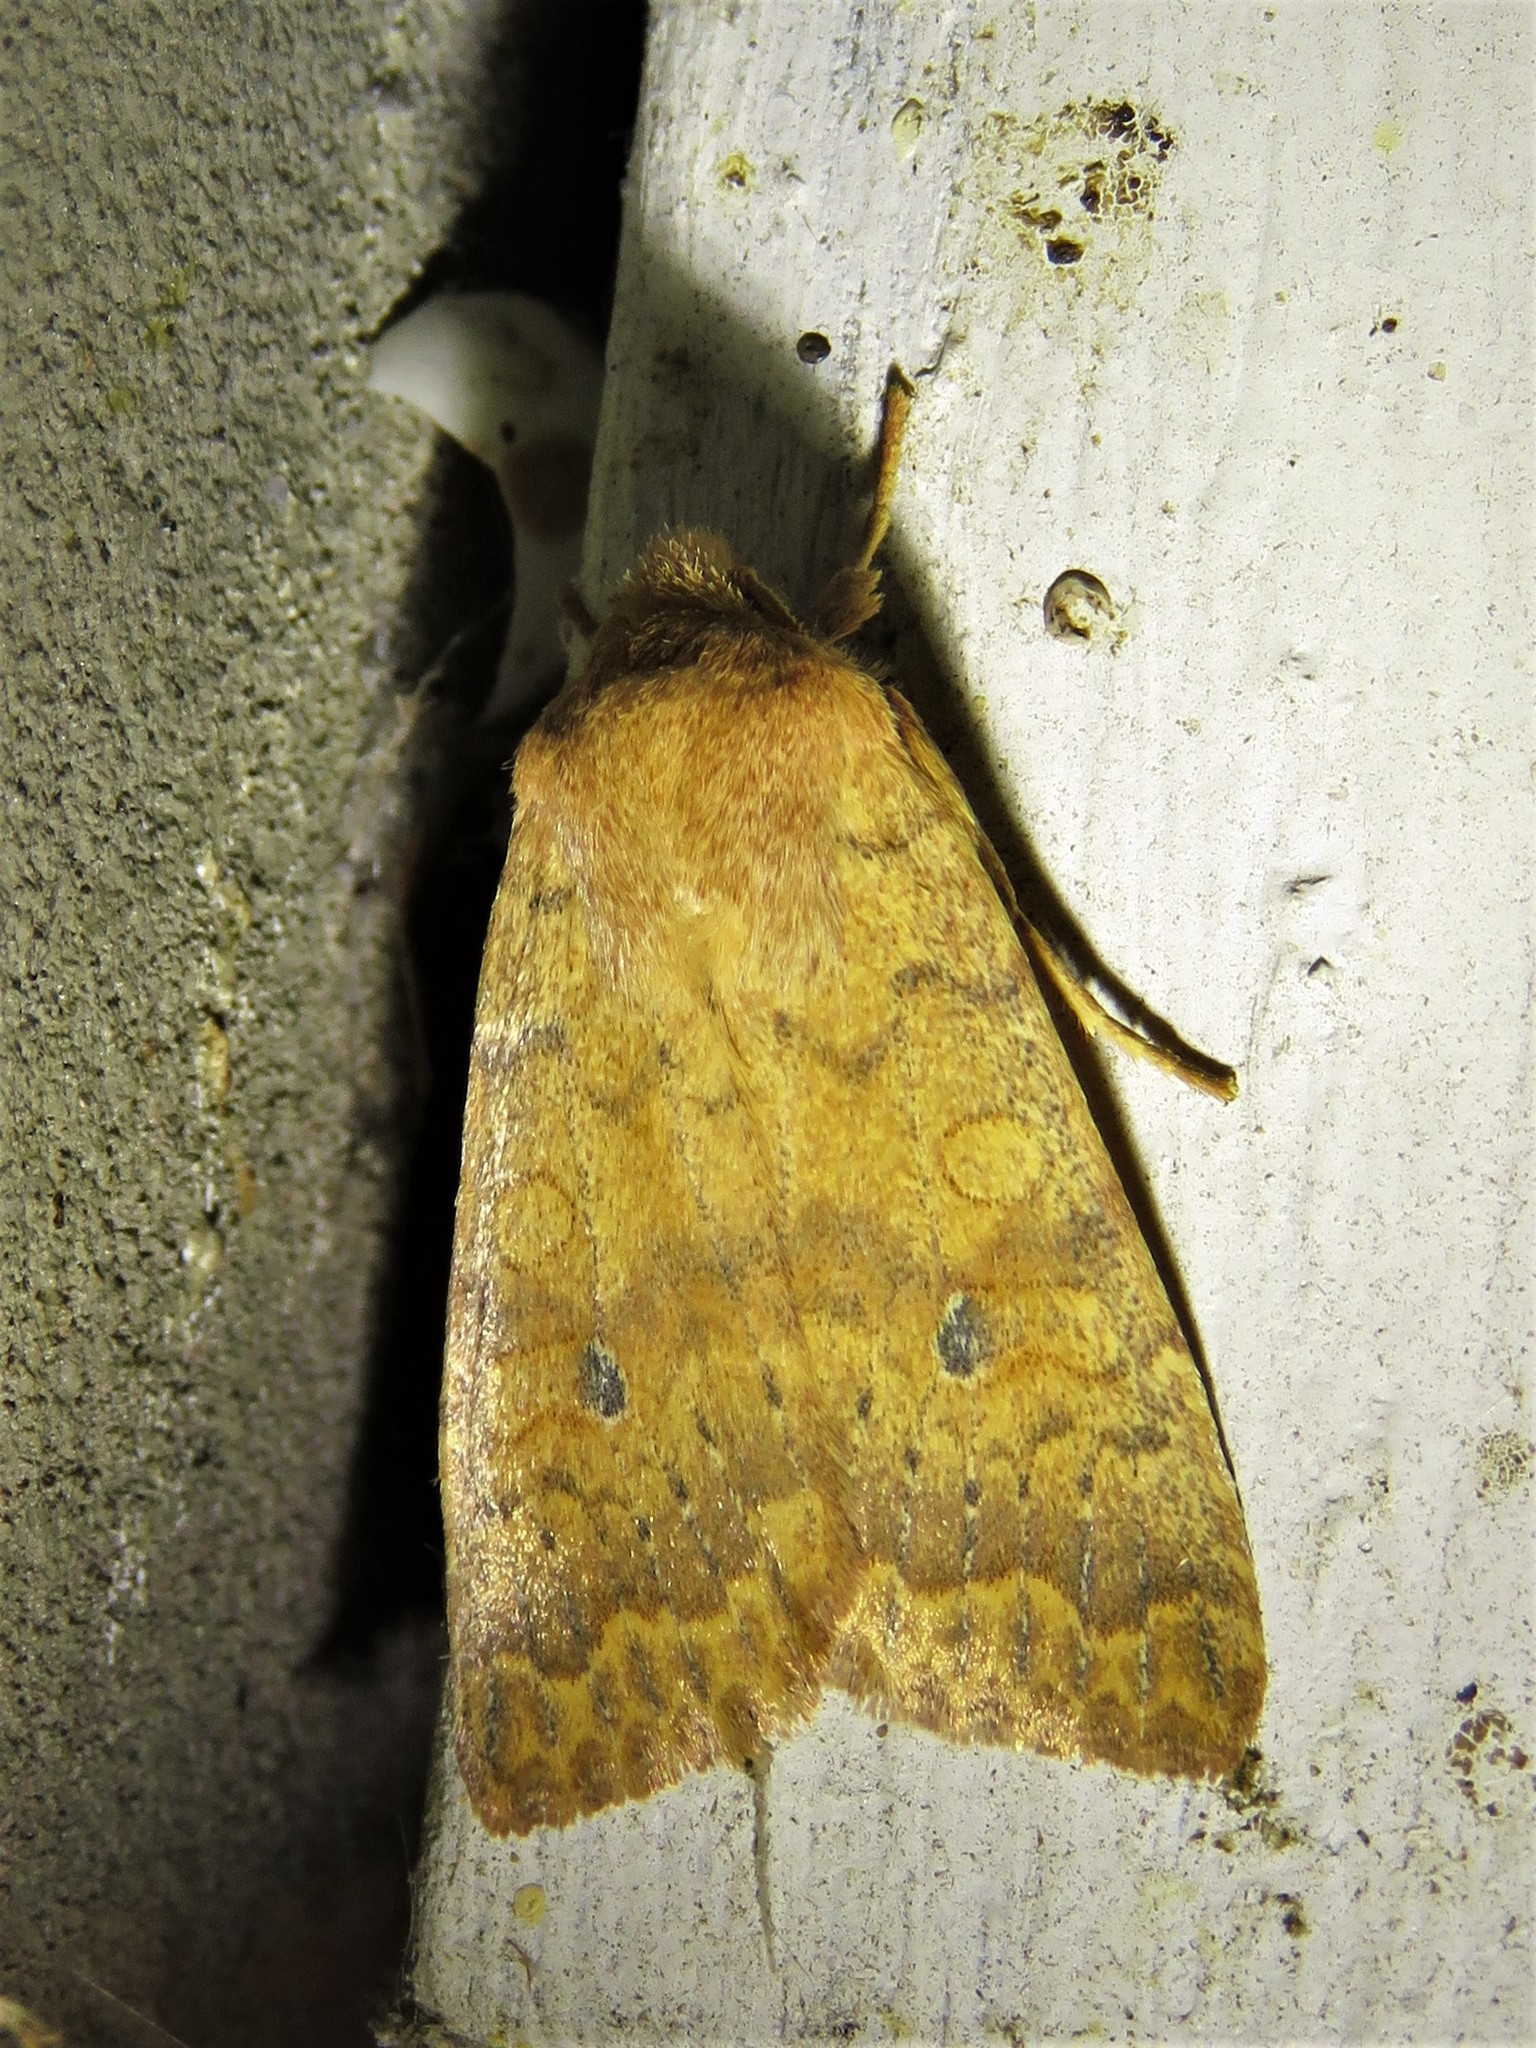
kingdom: Animalia
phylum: Arthropoda
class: Insecta
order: Lepidoptera
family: Noctuidae
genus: Agrochola
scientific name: Agrochola bicolorago
